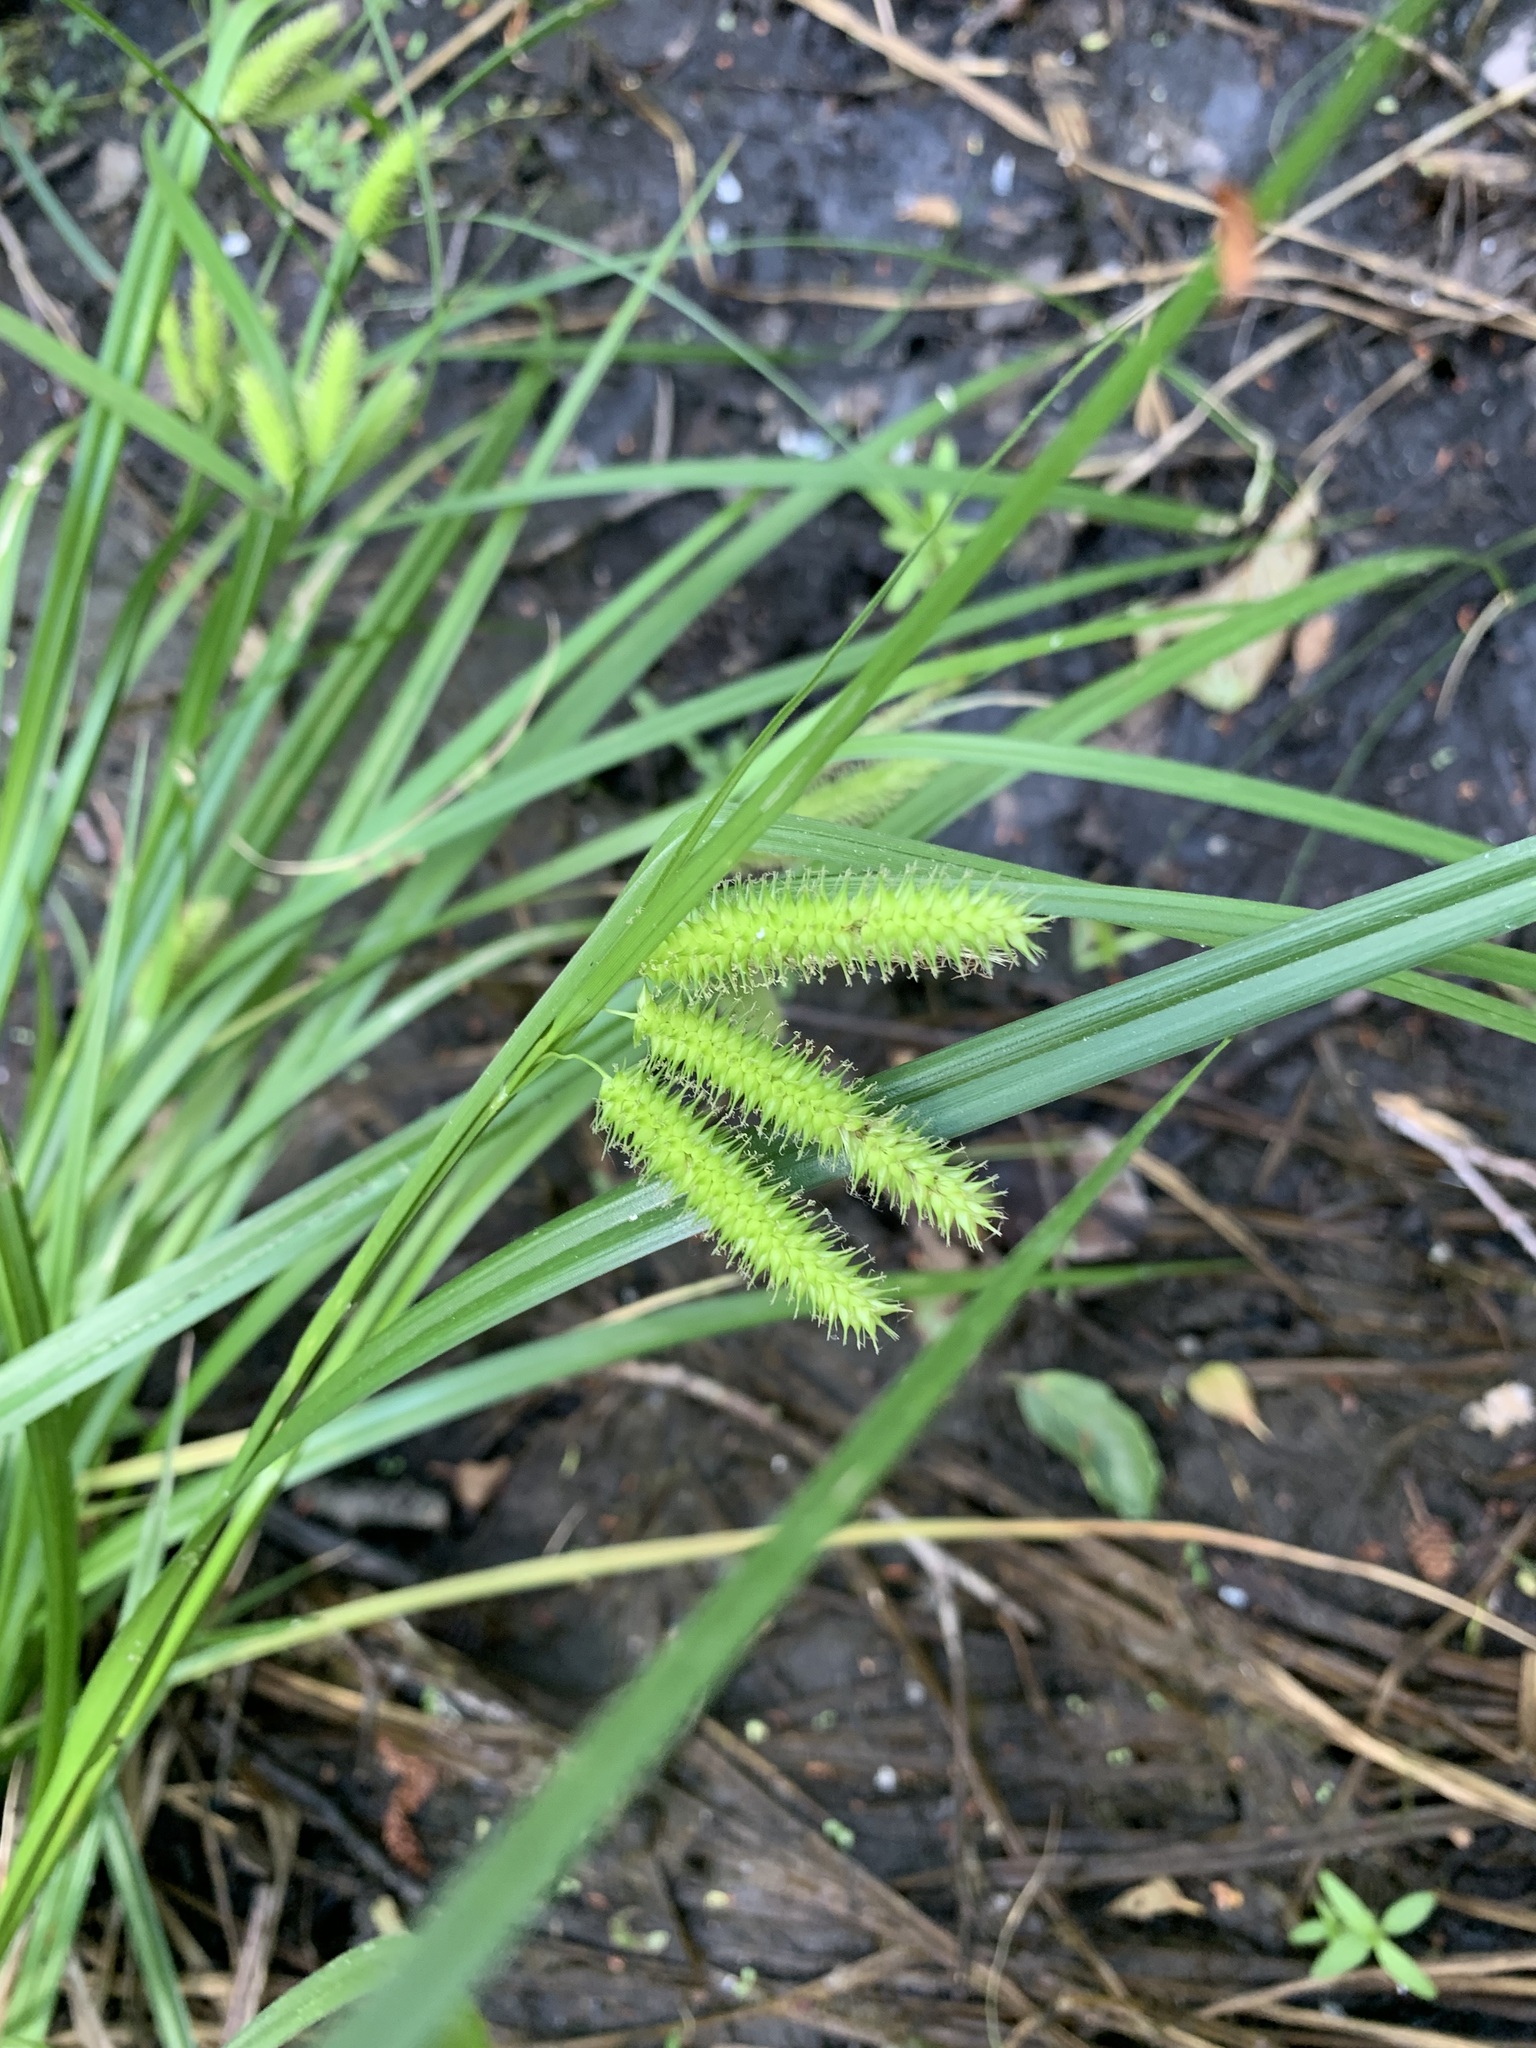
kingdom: Plantae
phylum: Tracheophyta
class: Liliopsida
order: Poales
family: Cyperaceae
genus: Carex
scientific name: Carex pseudocyperus
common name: Cyperus sedge
